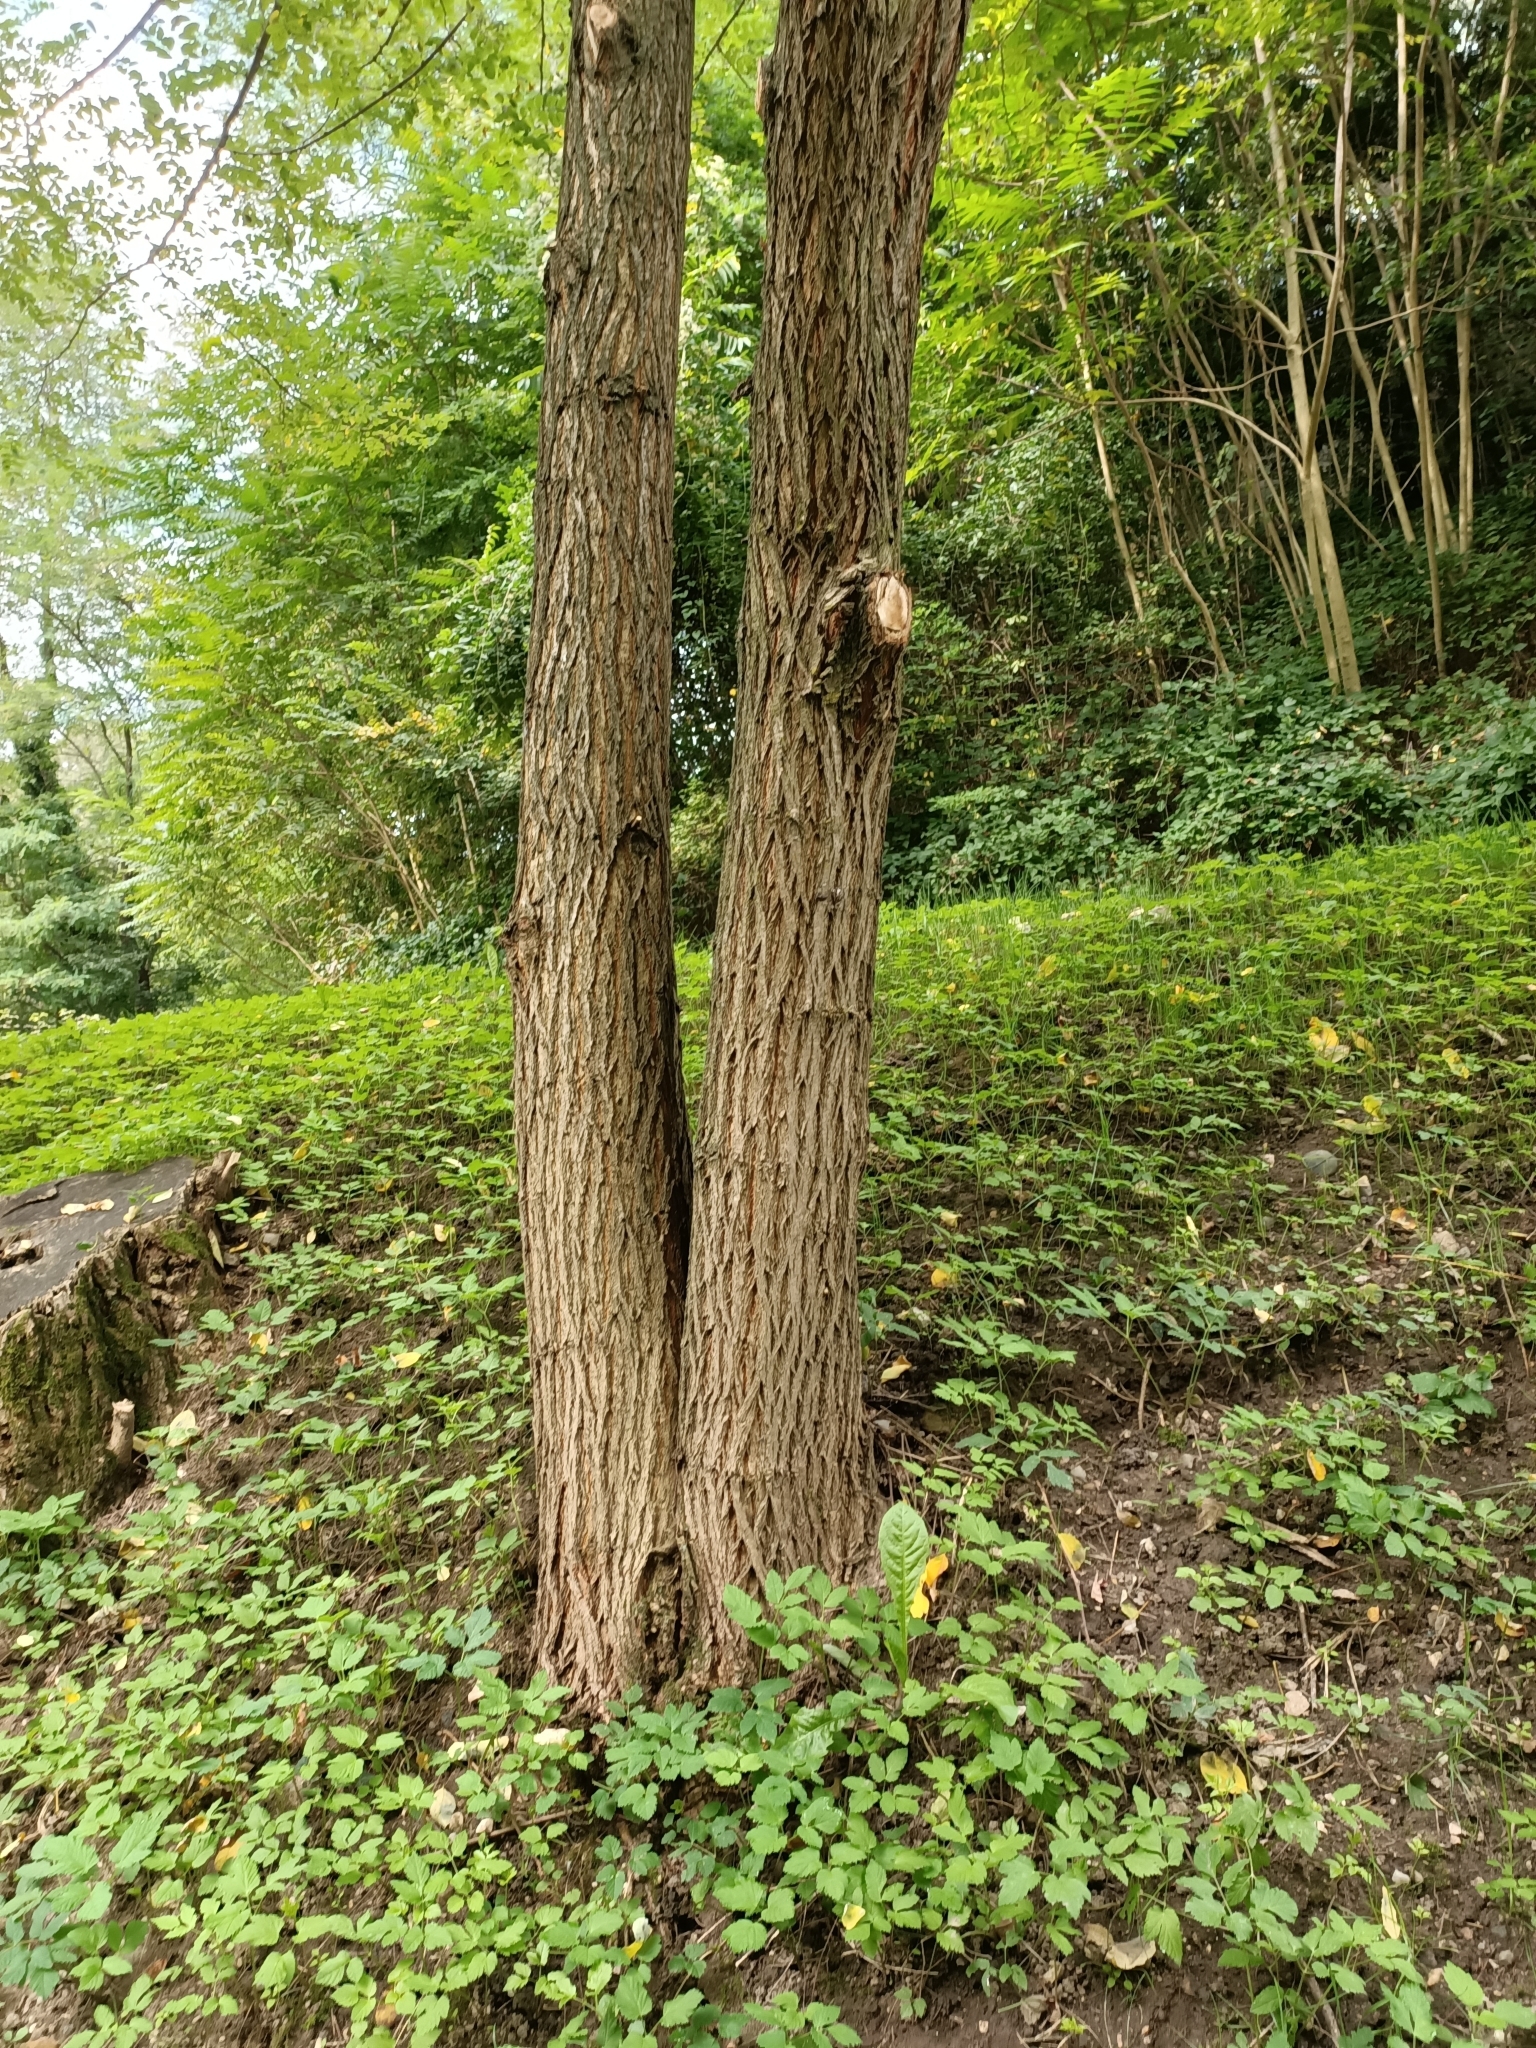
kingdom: Plantae
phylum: Tracheophyta
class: Magnoliopsida
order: Fagales
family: Juglandaceae
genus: Juglans
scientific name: Juglans regia
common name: Walnut
